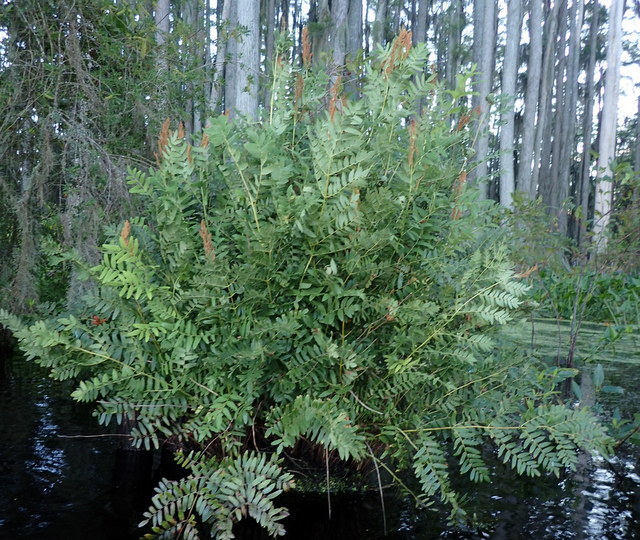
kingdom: Plantae
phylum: Tracheophyta
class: Polypodiopsida
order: Osmundales
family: Osmundaceae
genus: Osmunda
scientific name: Osmunda spectabilis
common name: American royal fern
